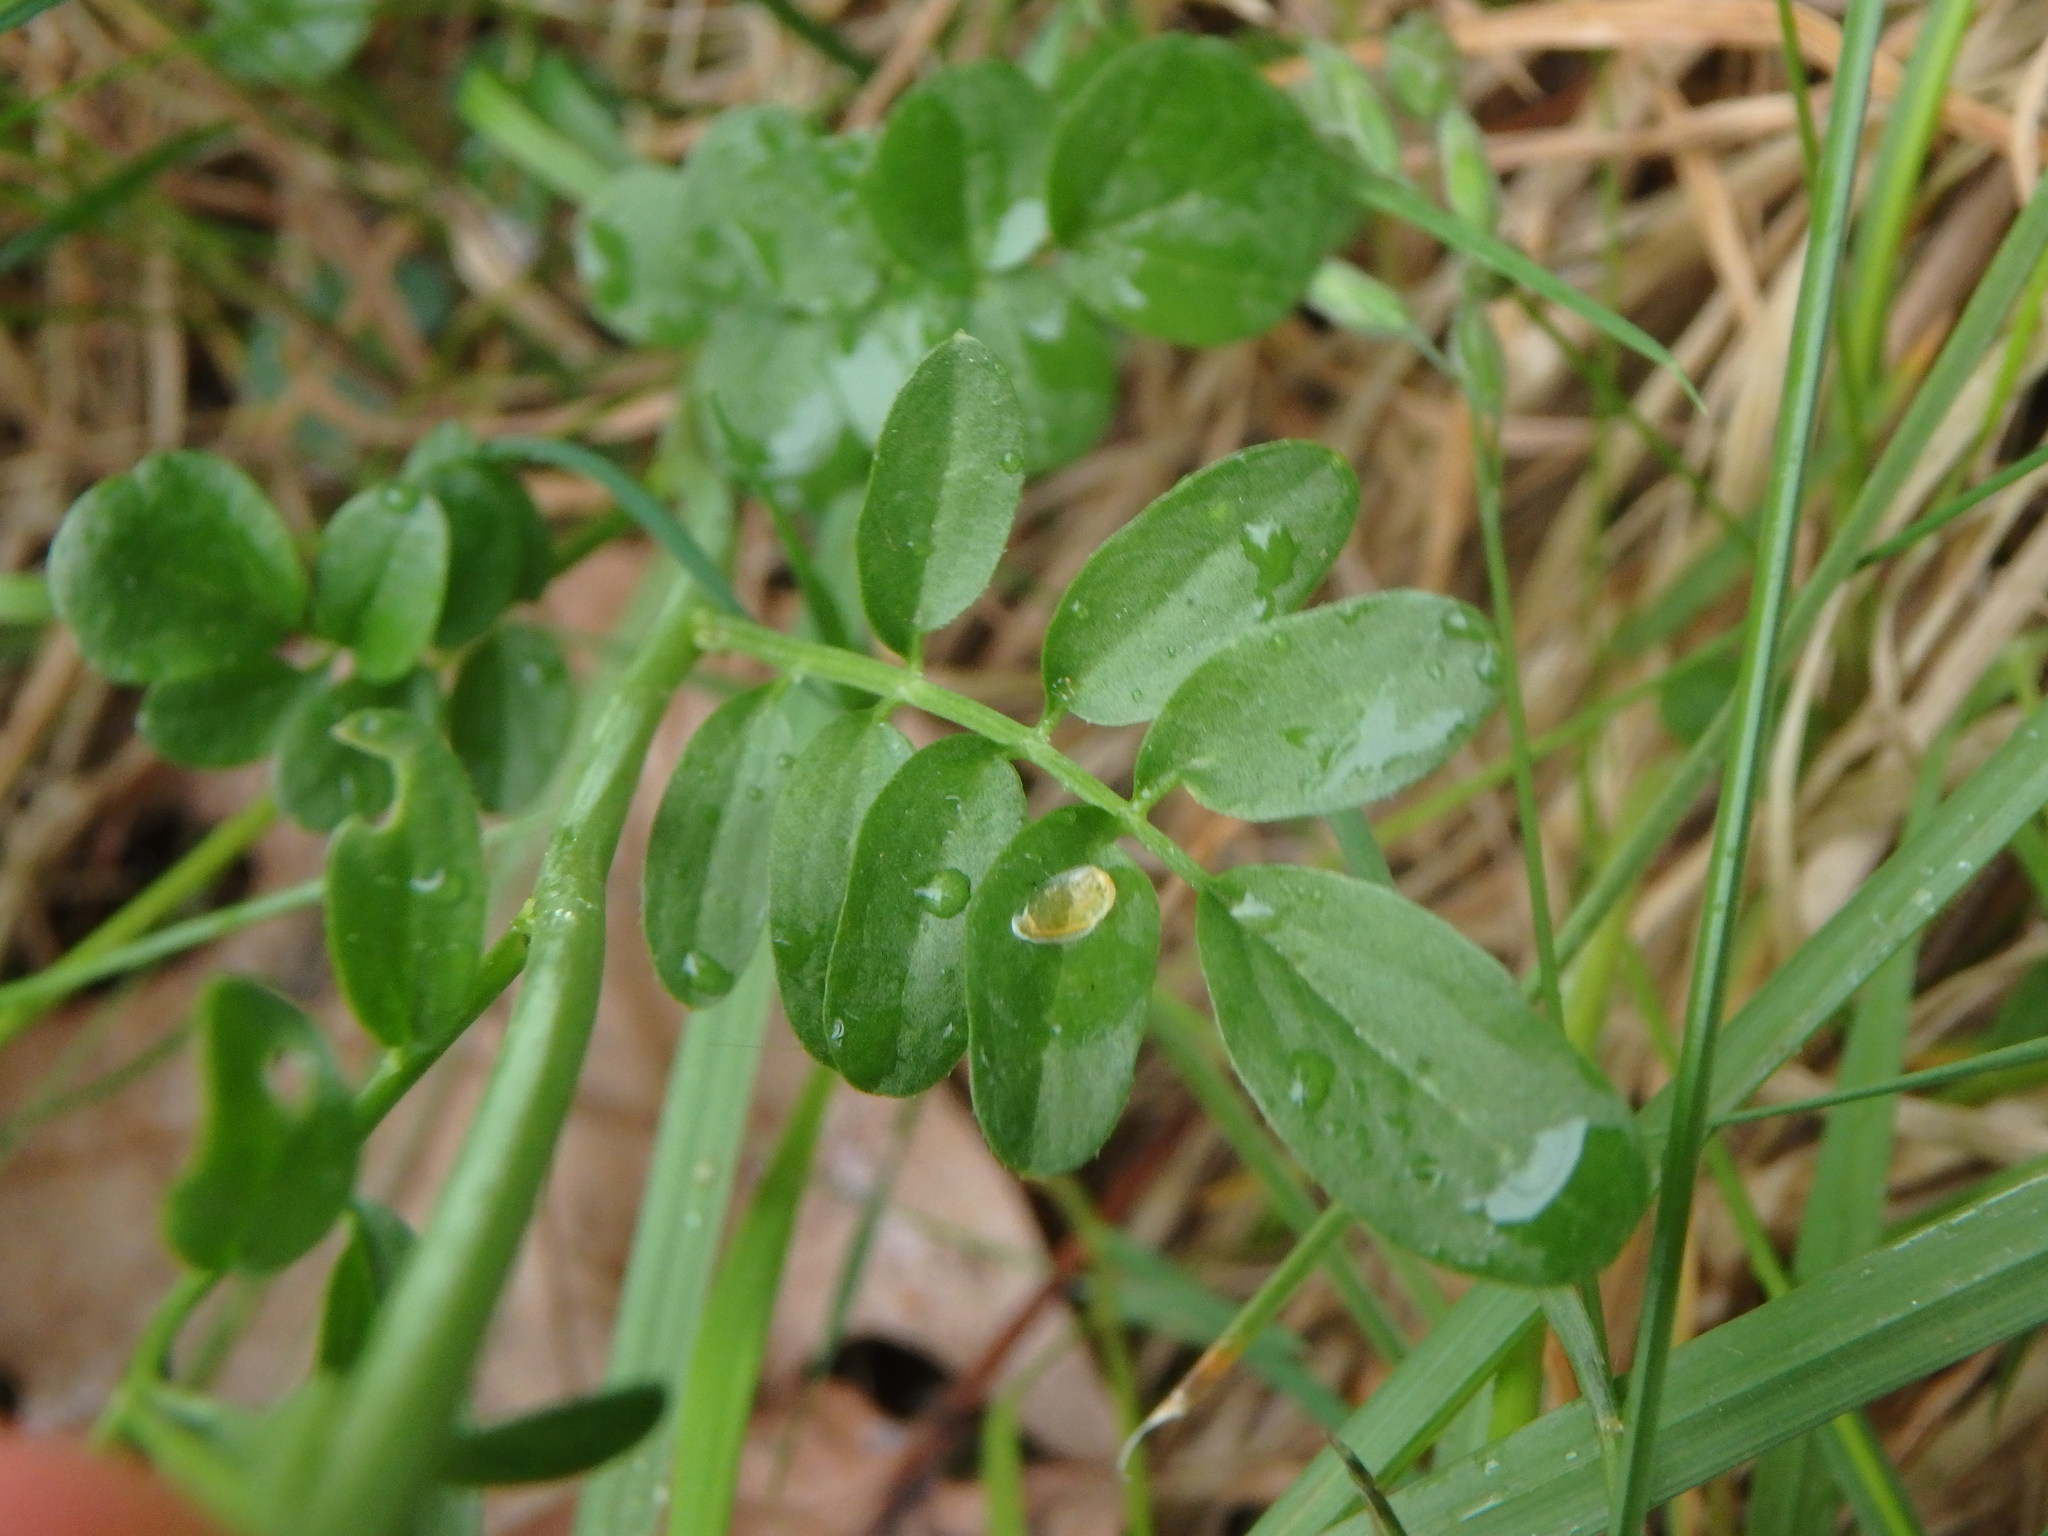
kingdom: Plantae
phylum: Tracheophyta
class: Magnoliopsida
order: Brassicales
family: Brassicaceae
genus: Cardamine
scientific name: Cardamine pratensis
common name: Cuckoo flower
